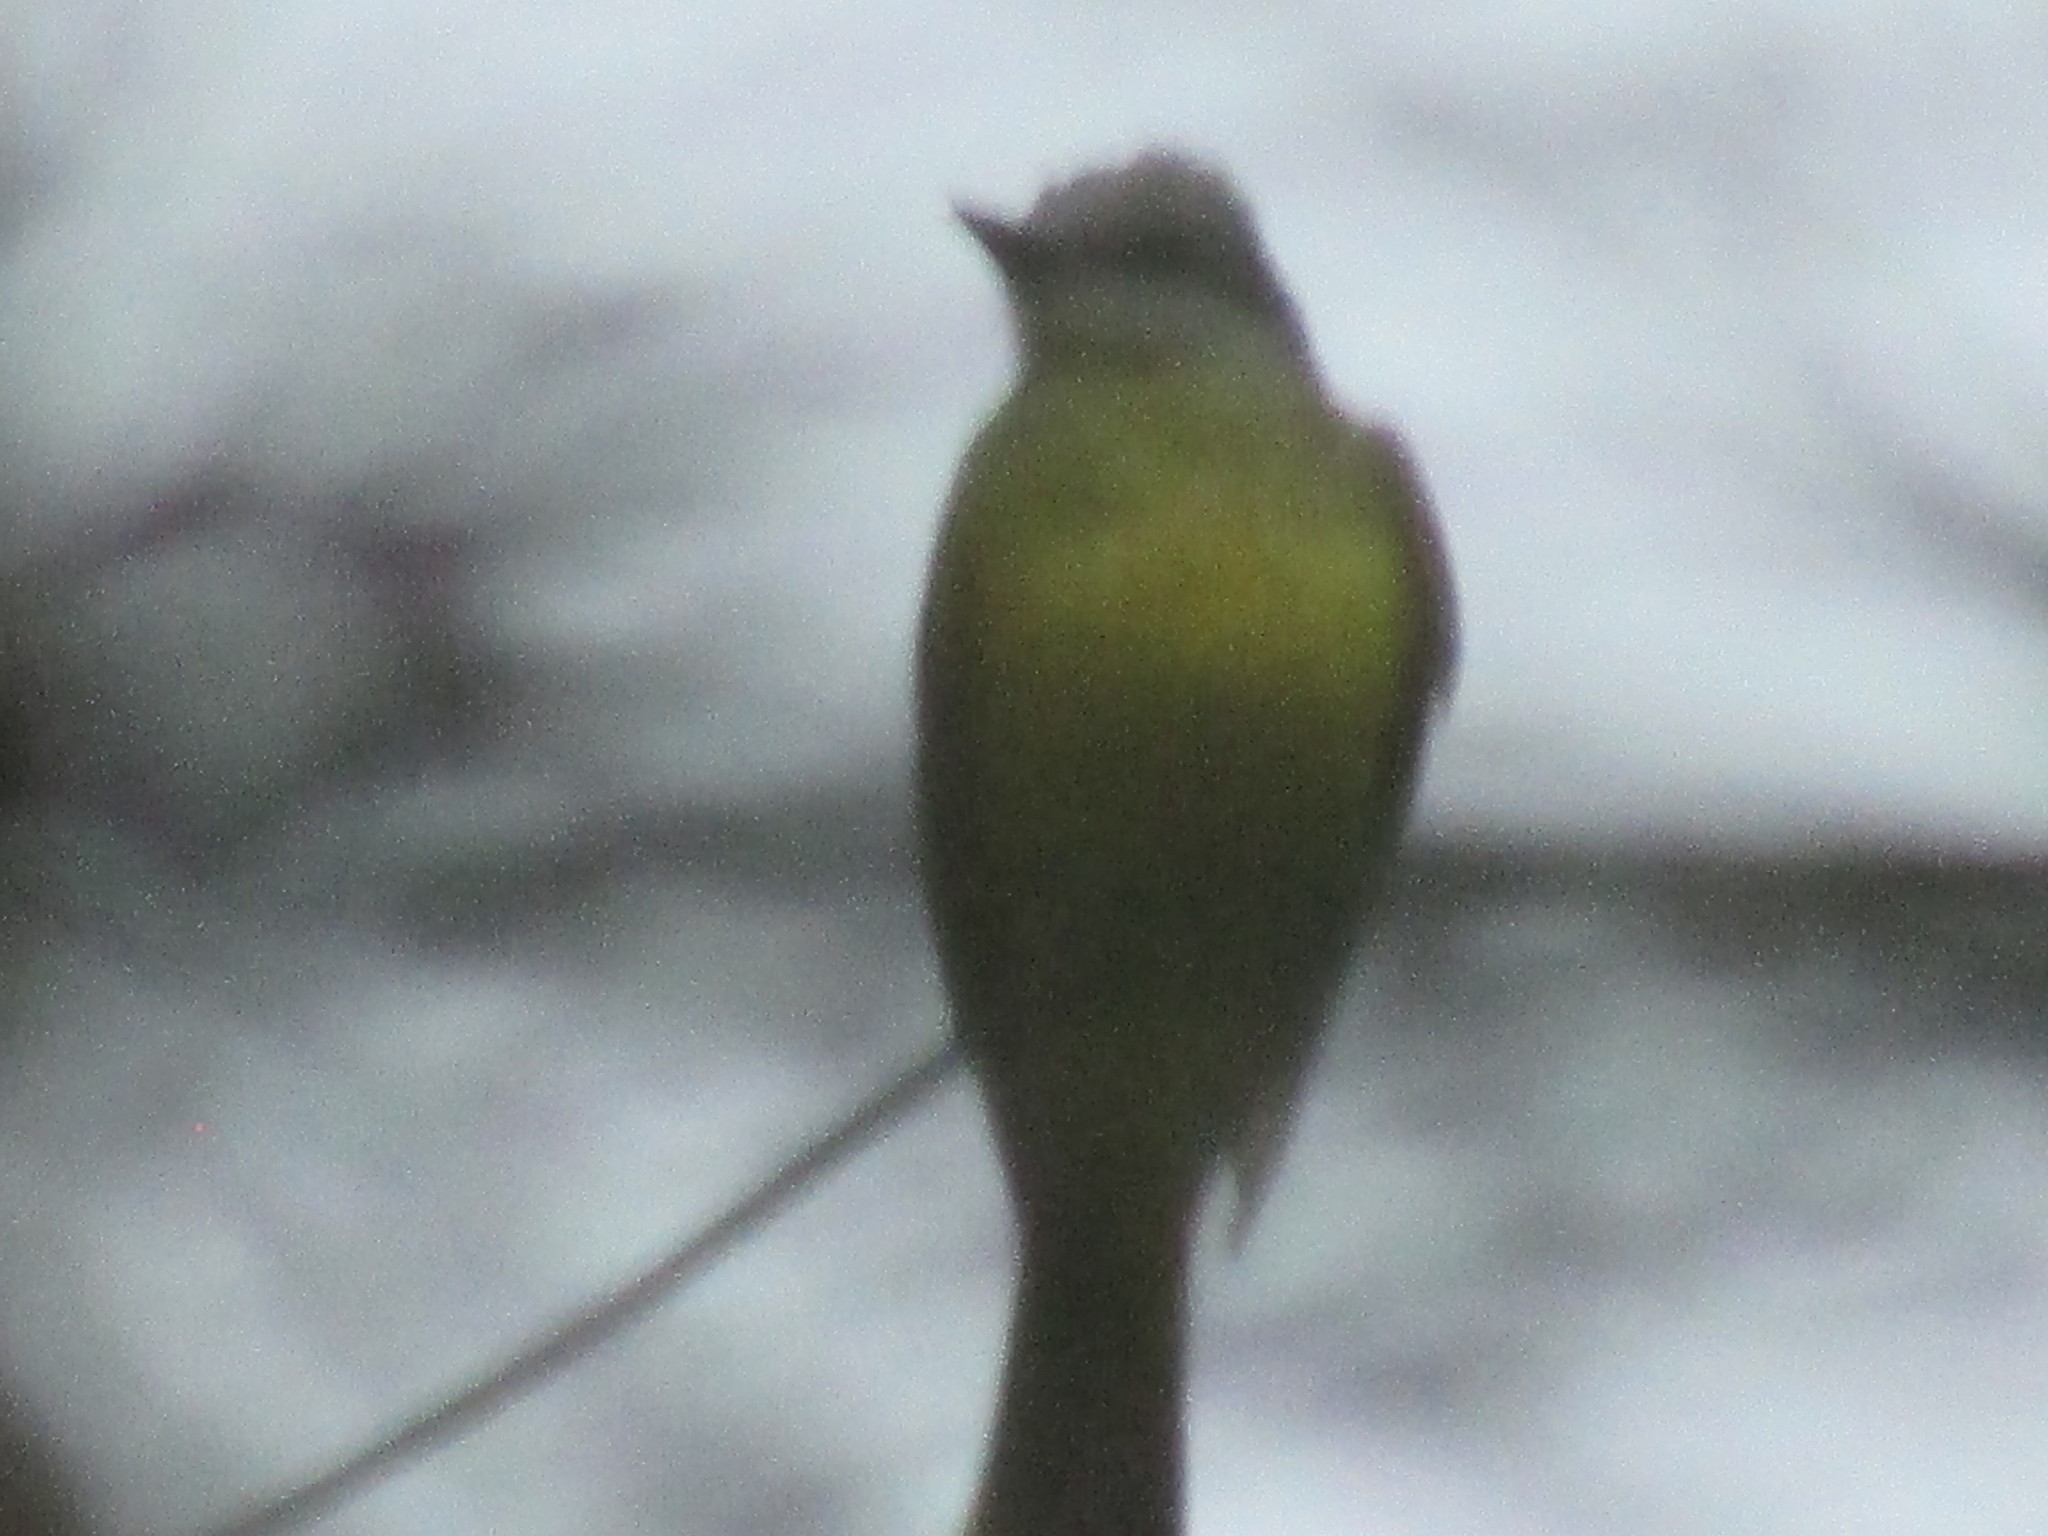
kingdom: Animalia
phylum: Chordata
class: Aves
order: Passeriformes
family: Tyrannidae
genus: Tyrannus
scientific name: Tyrannus melancholicus
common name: Tropical kingbird
